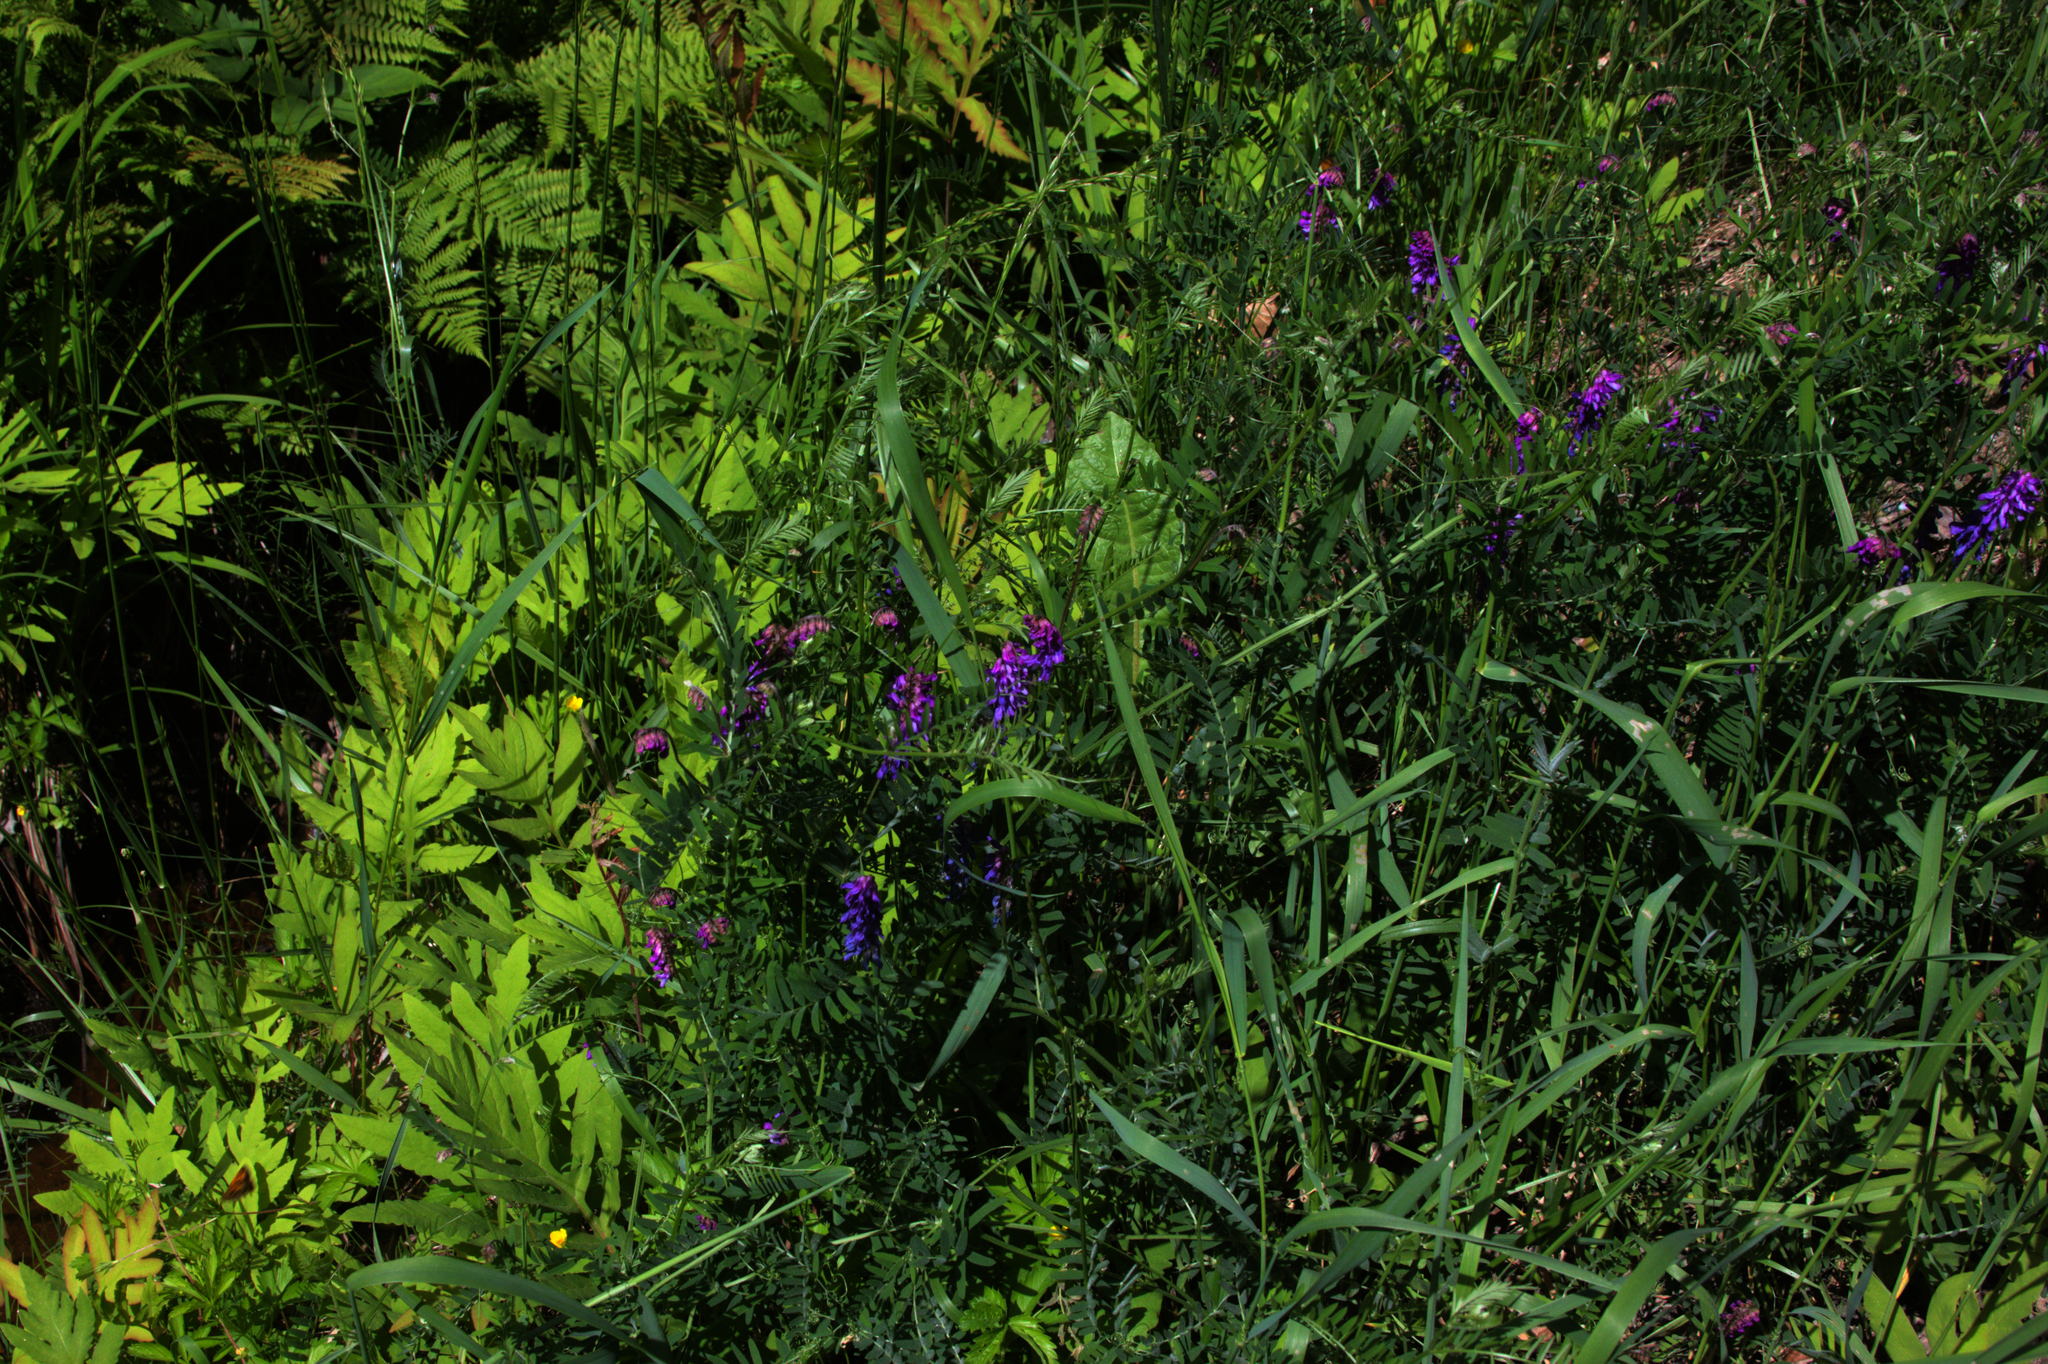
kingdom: Plantae
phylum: Tracheophyta
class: Polypodiopsida
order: Polypodiales
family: Onocleaceae
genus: Onoclea
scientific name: Onoclea sensibilis
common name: Sensitive fern
